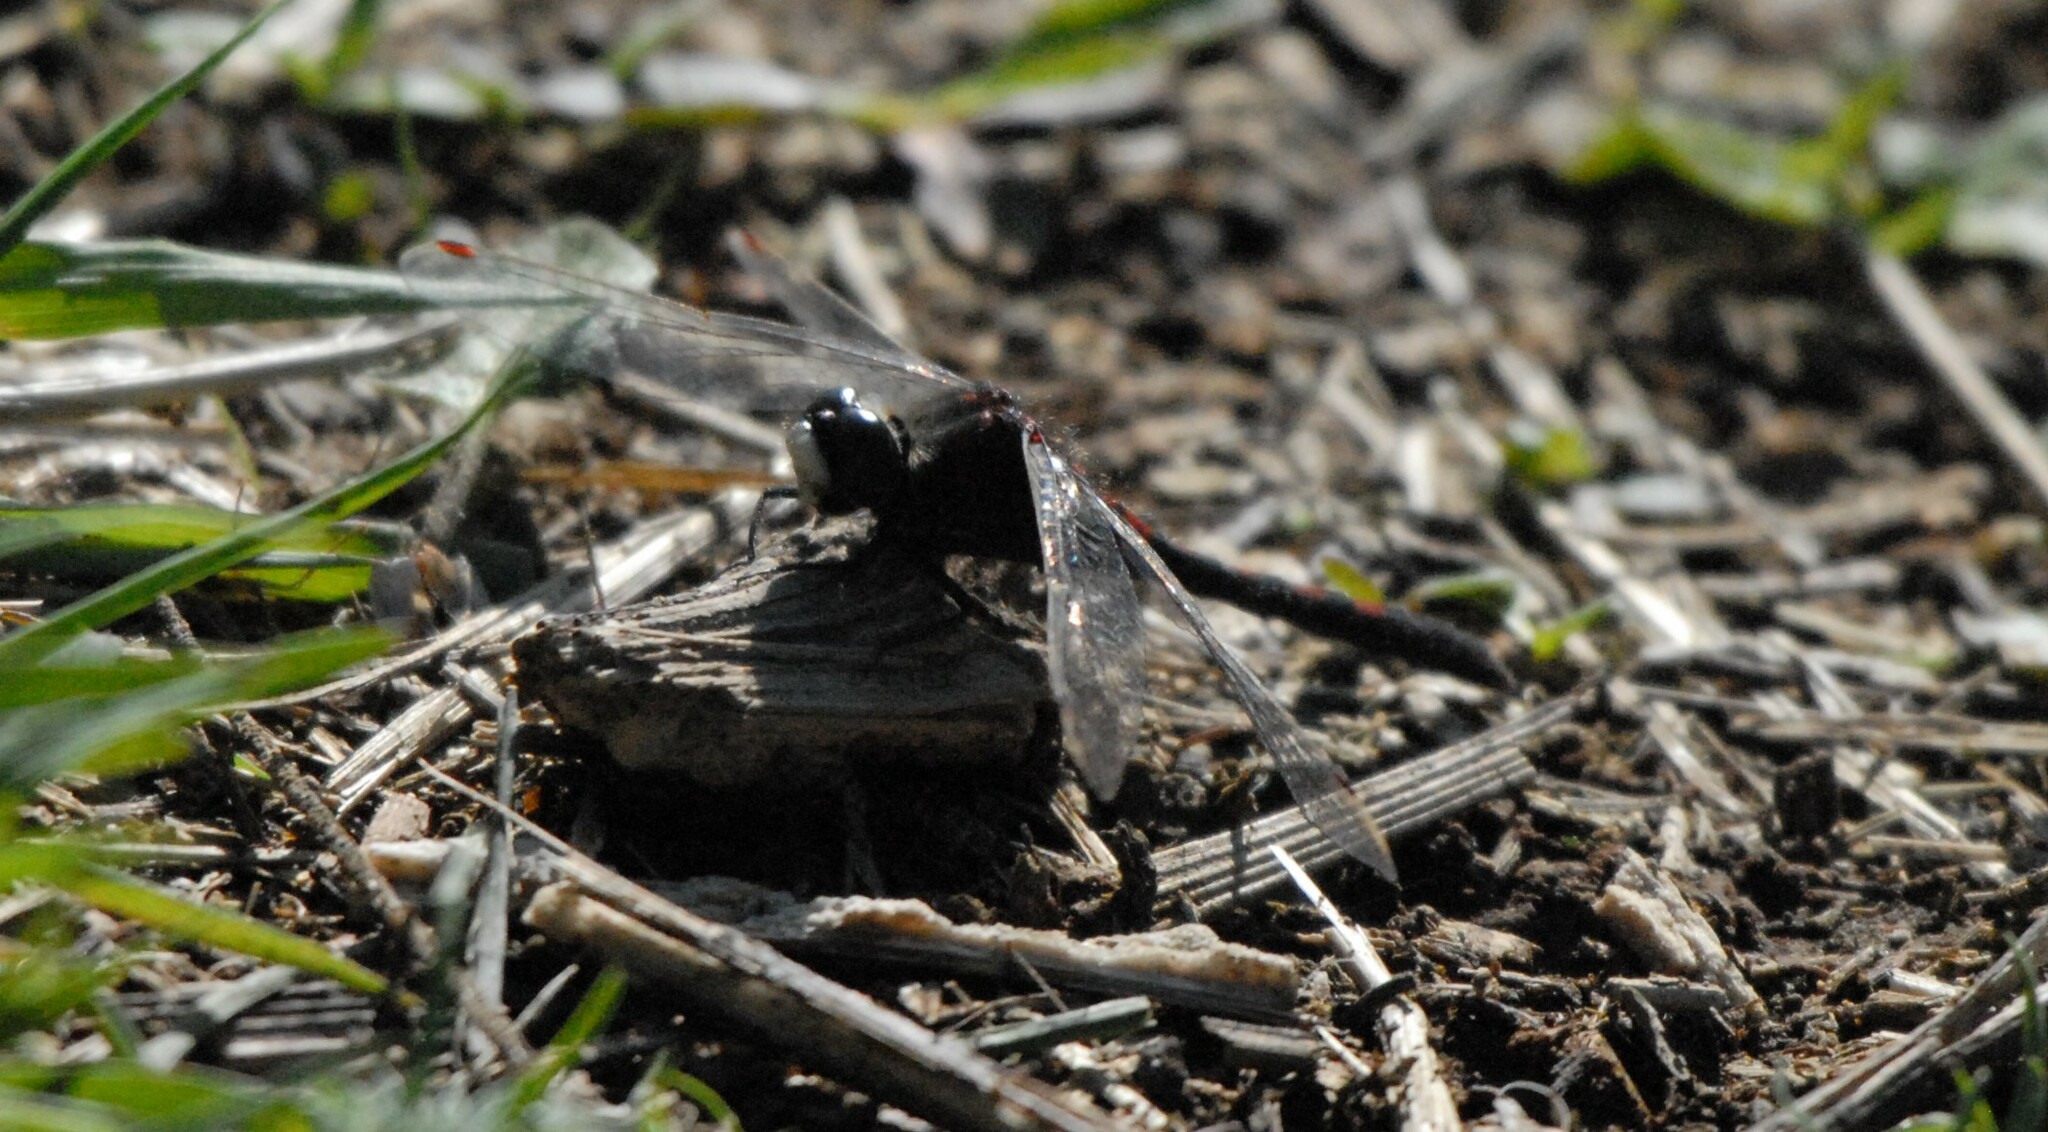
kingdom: Animalia
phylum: Arthropoda
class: Insecta
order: Odonata
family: Libellulidae
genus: Leucorrhinia
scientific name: Leucorrhinia rubicunda
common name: Ruby whiteface
